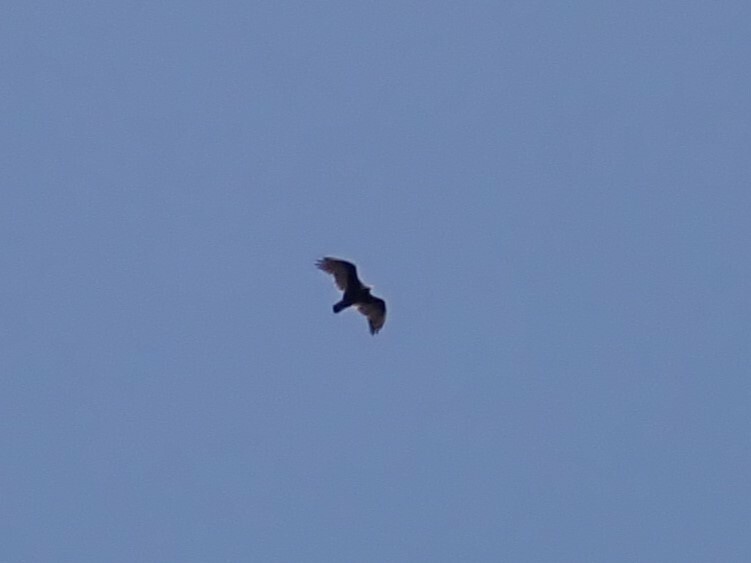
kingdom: Animalia
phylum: Chordata
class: Aves
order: Accipitriformes
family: Cathartidae
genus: Cathartes
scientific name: Cathartes aura
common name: Turkey vulture
